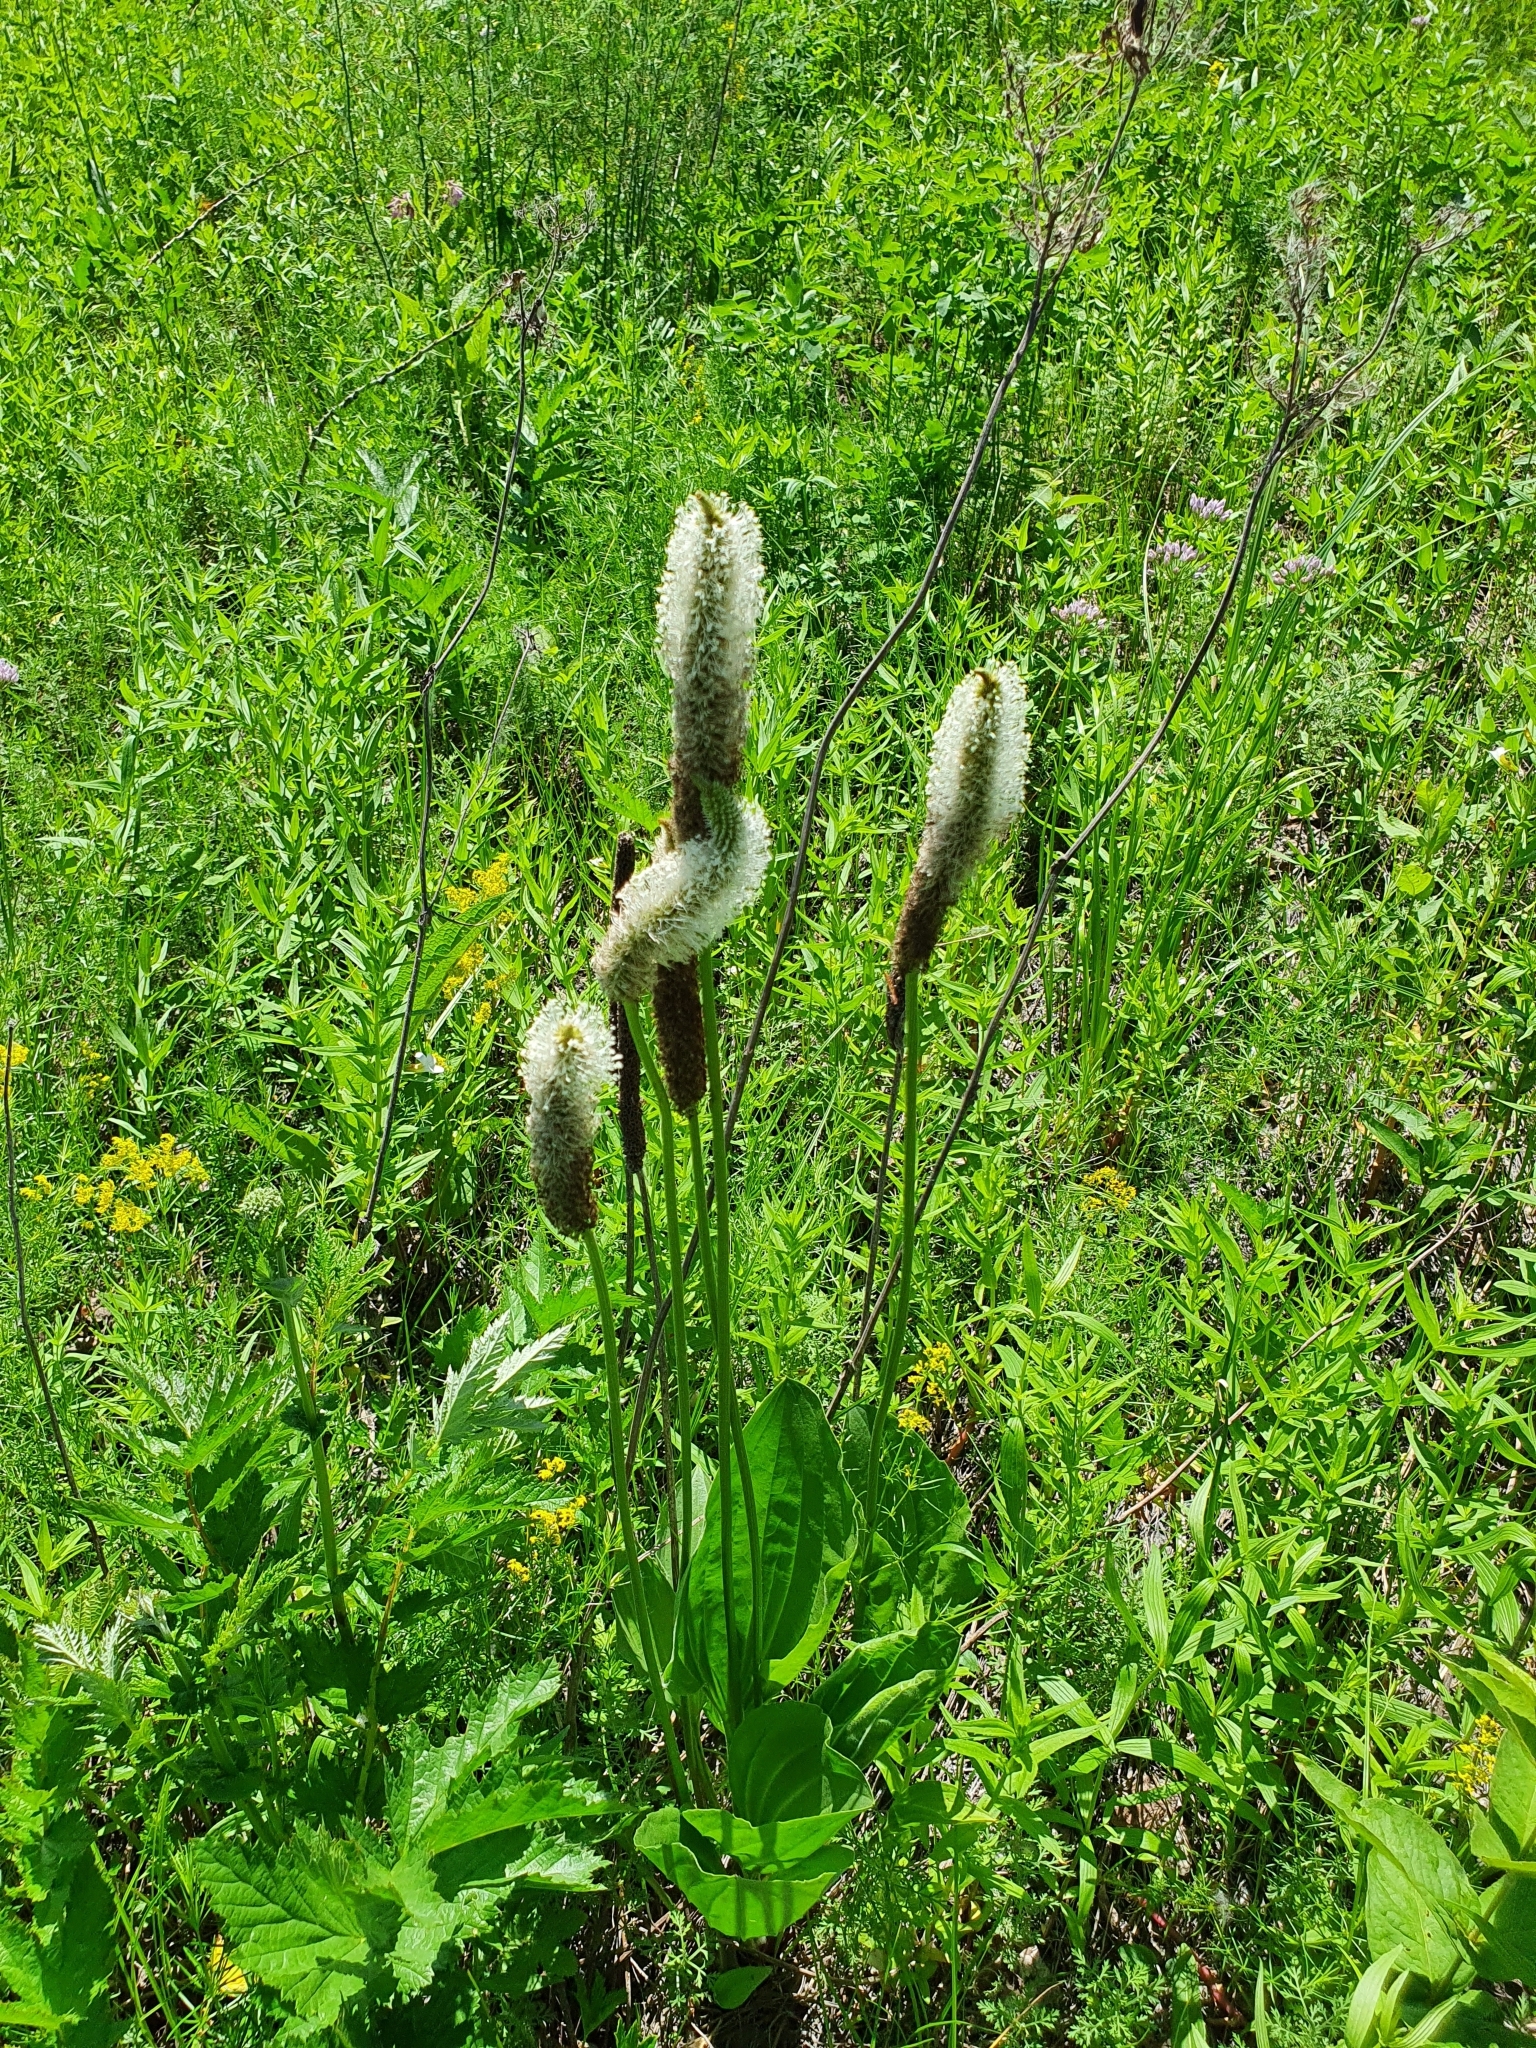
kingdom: Plantae
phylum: Tracheophyta
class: Magnoliopsida
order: Lamiales
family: Plantaginaceae
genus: Plantago
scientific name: Plantago maxima
